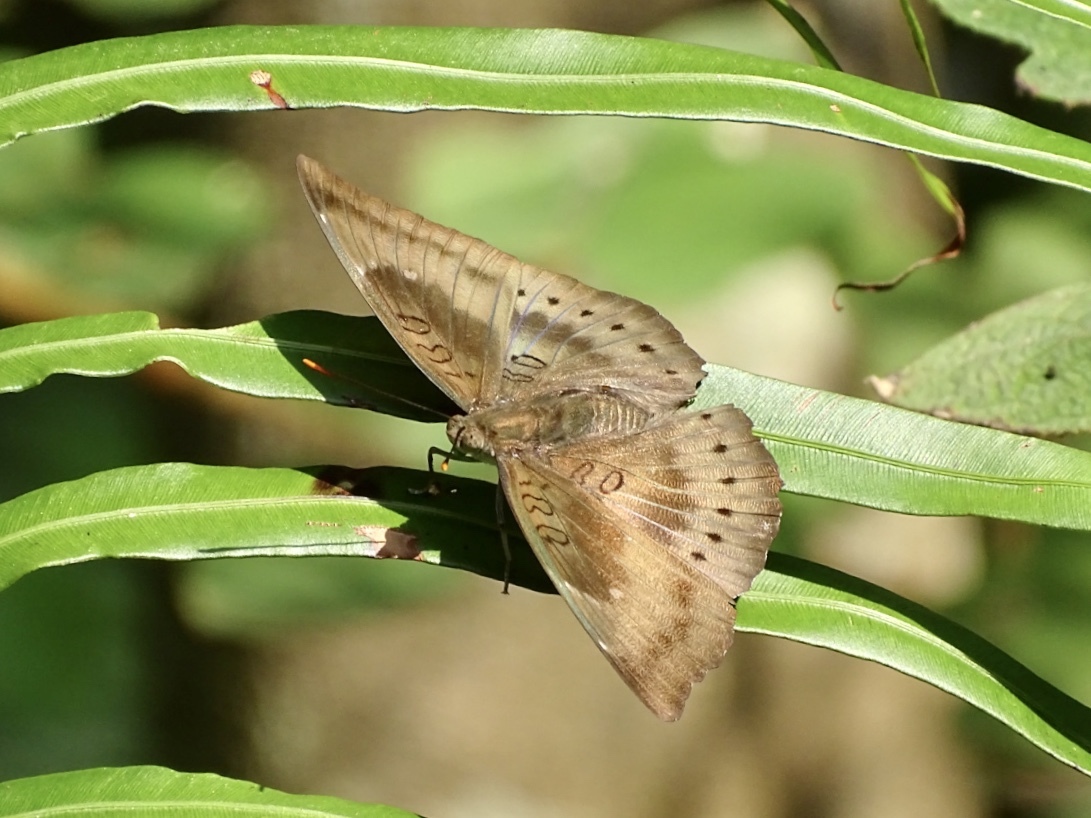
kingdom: Animalia
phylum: Arthropoda
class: Insecta
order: Lepidoptera
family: Nymphalidae
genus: Euthalia
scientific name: Euthalia aconthea
